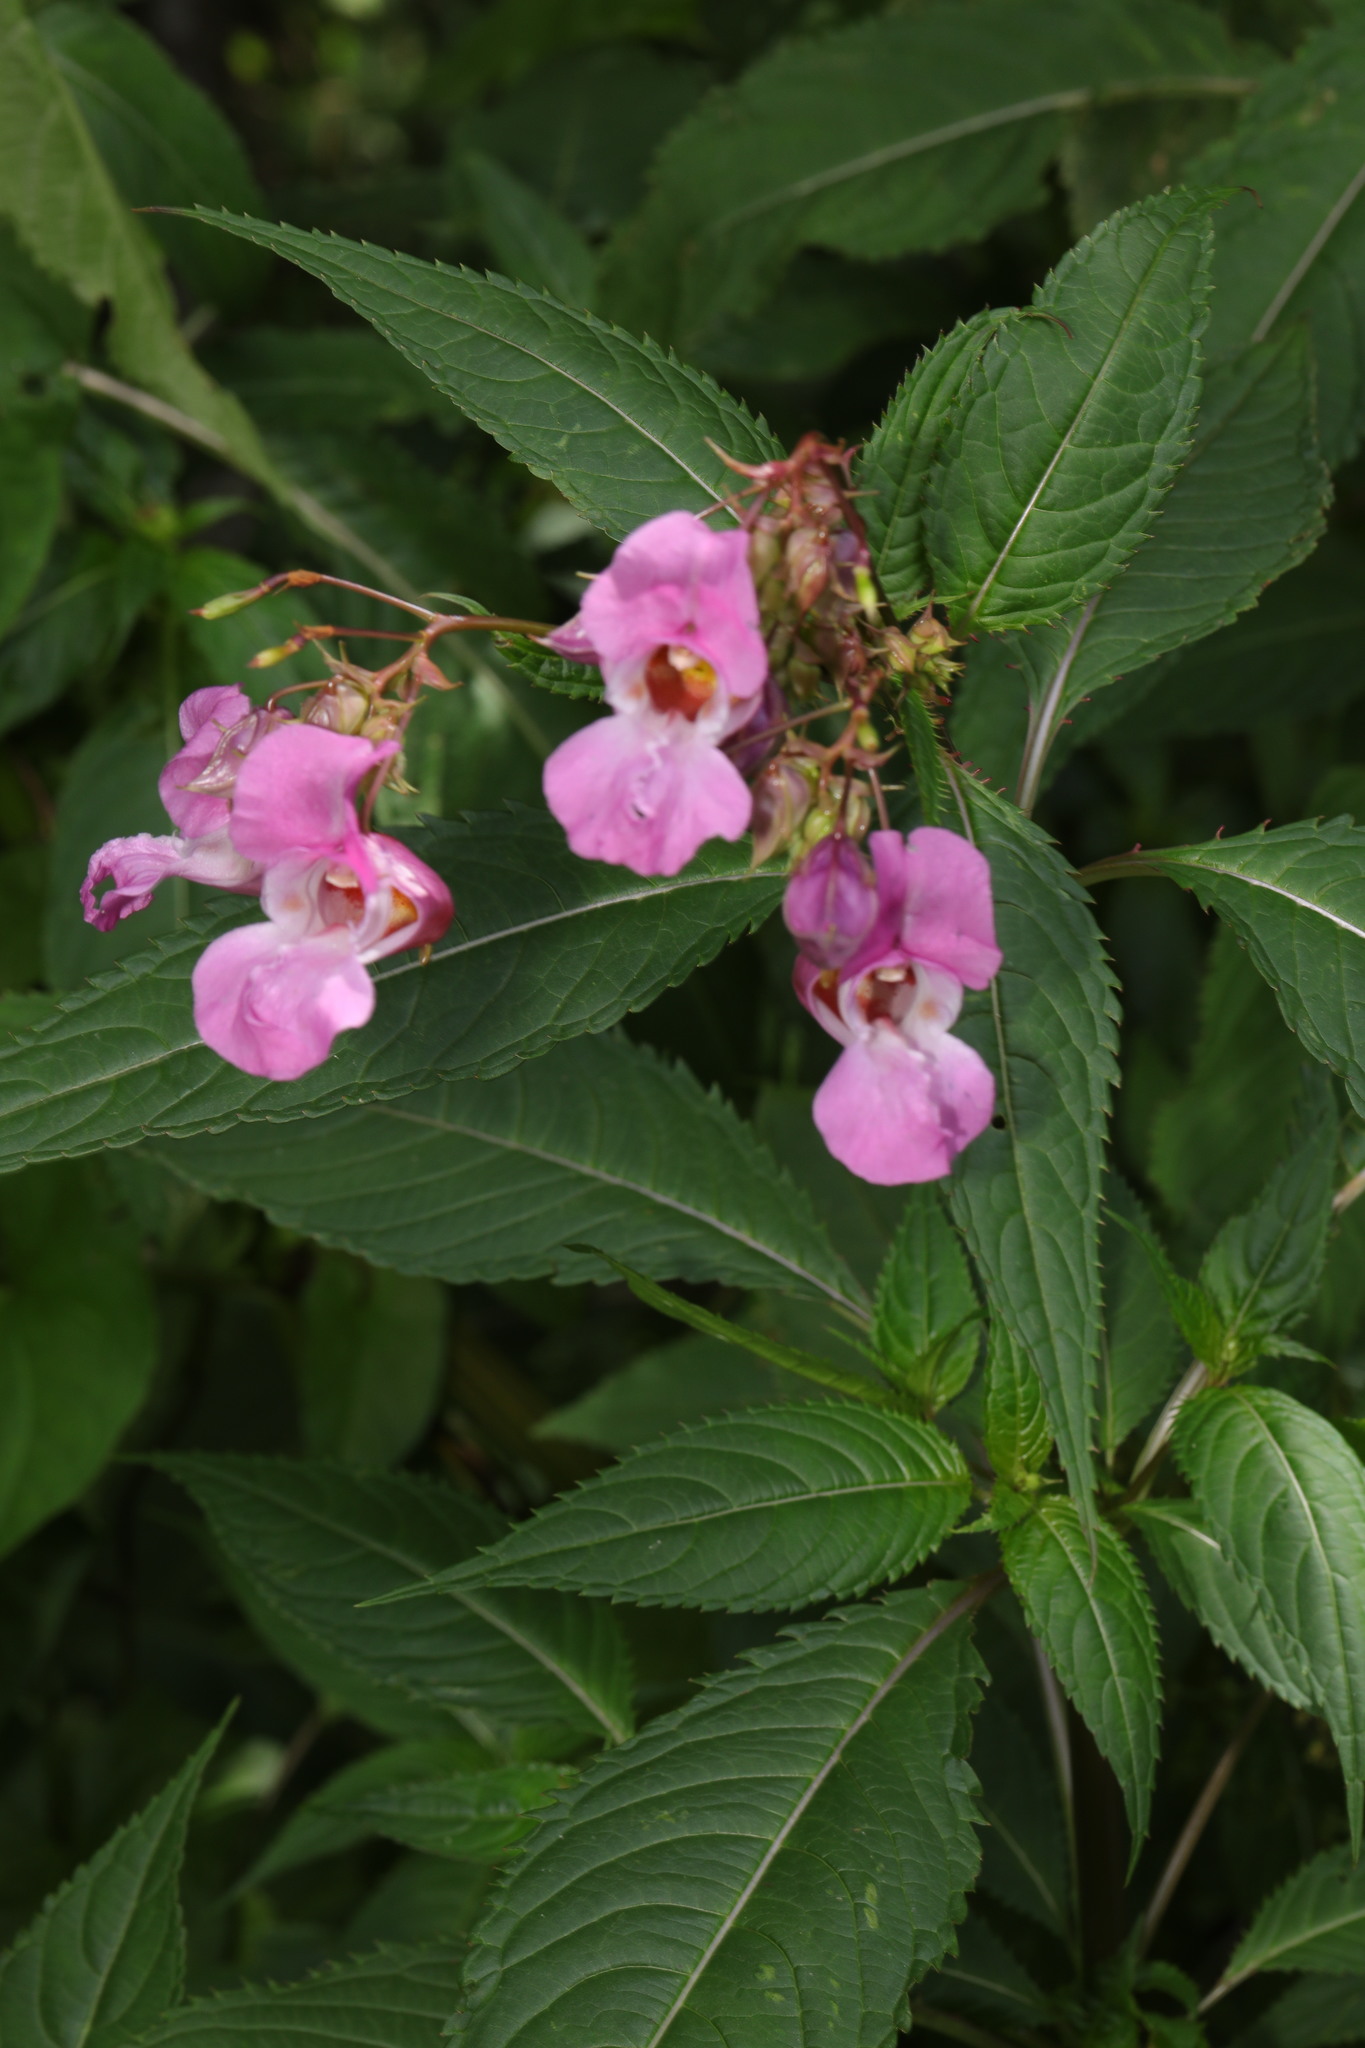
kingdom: Plantae
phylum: Tracheophyta
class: Magnoliopsida
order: Ericales
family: Balsaminaceae
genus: Impatiens
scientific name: Impatiens glandulifera
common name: Himalayan balsam
